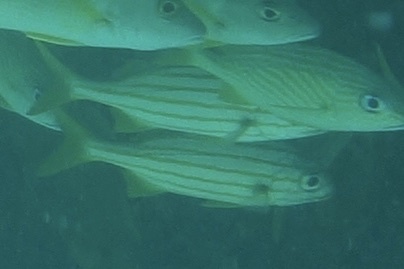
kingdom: Animalia
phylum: Chordata
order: Perciformes
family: Haemulidae
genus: Haemulon
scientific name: Haemulon chrysargyreum
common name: Smallmouth grunt
